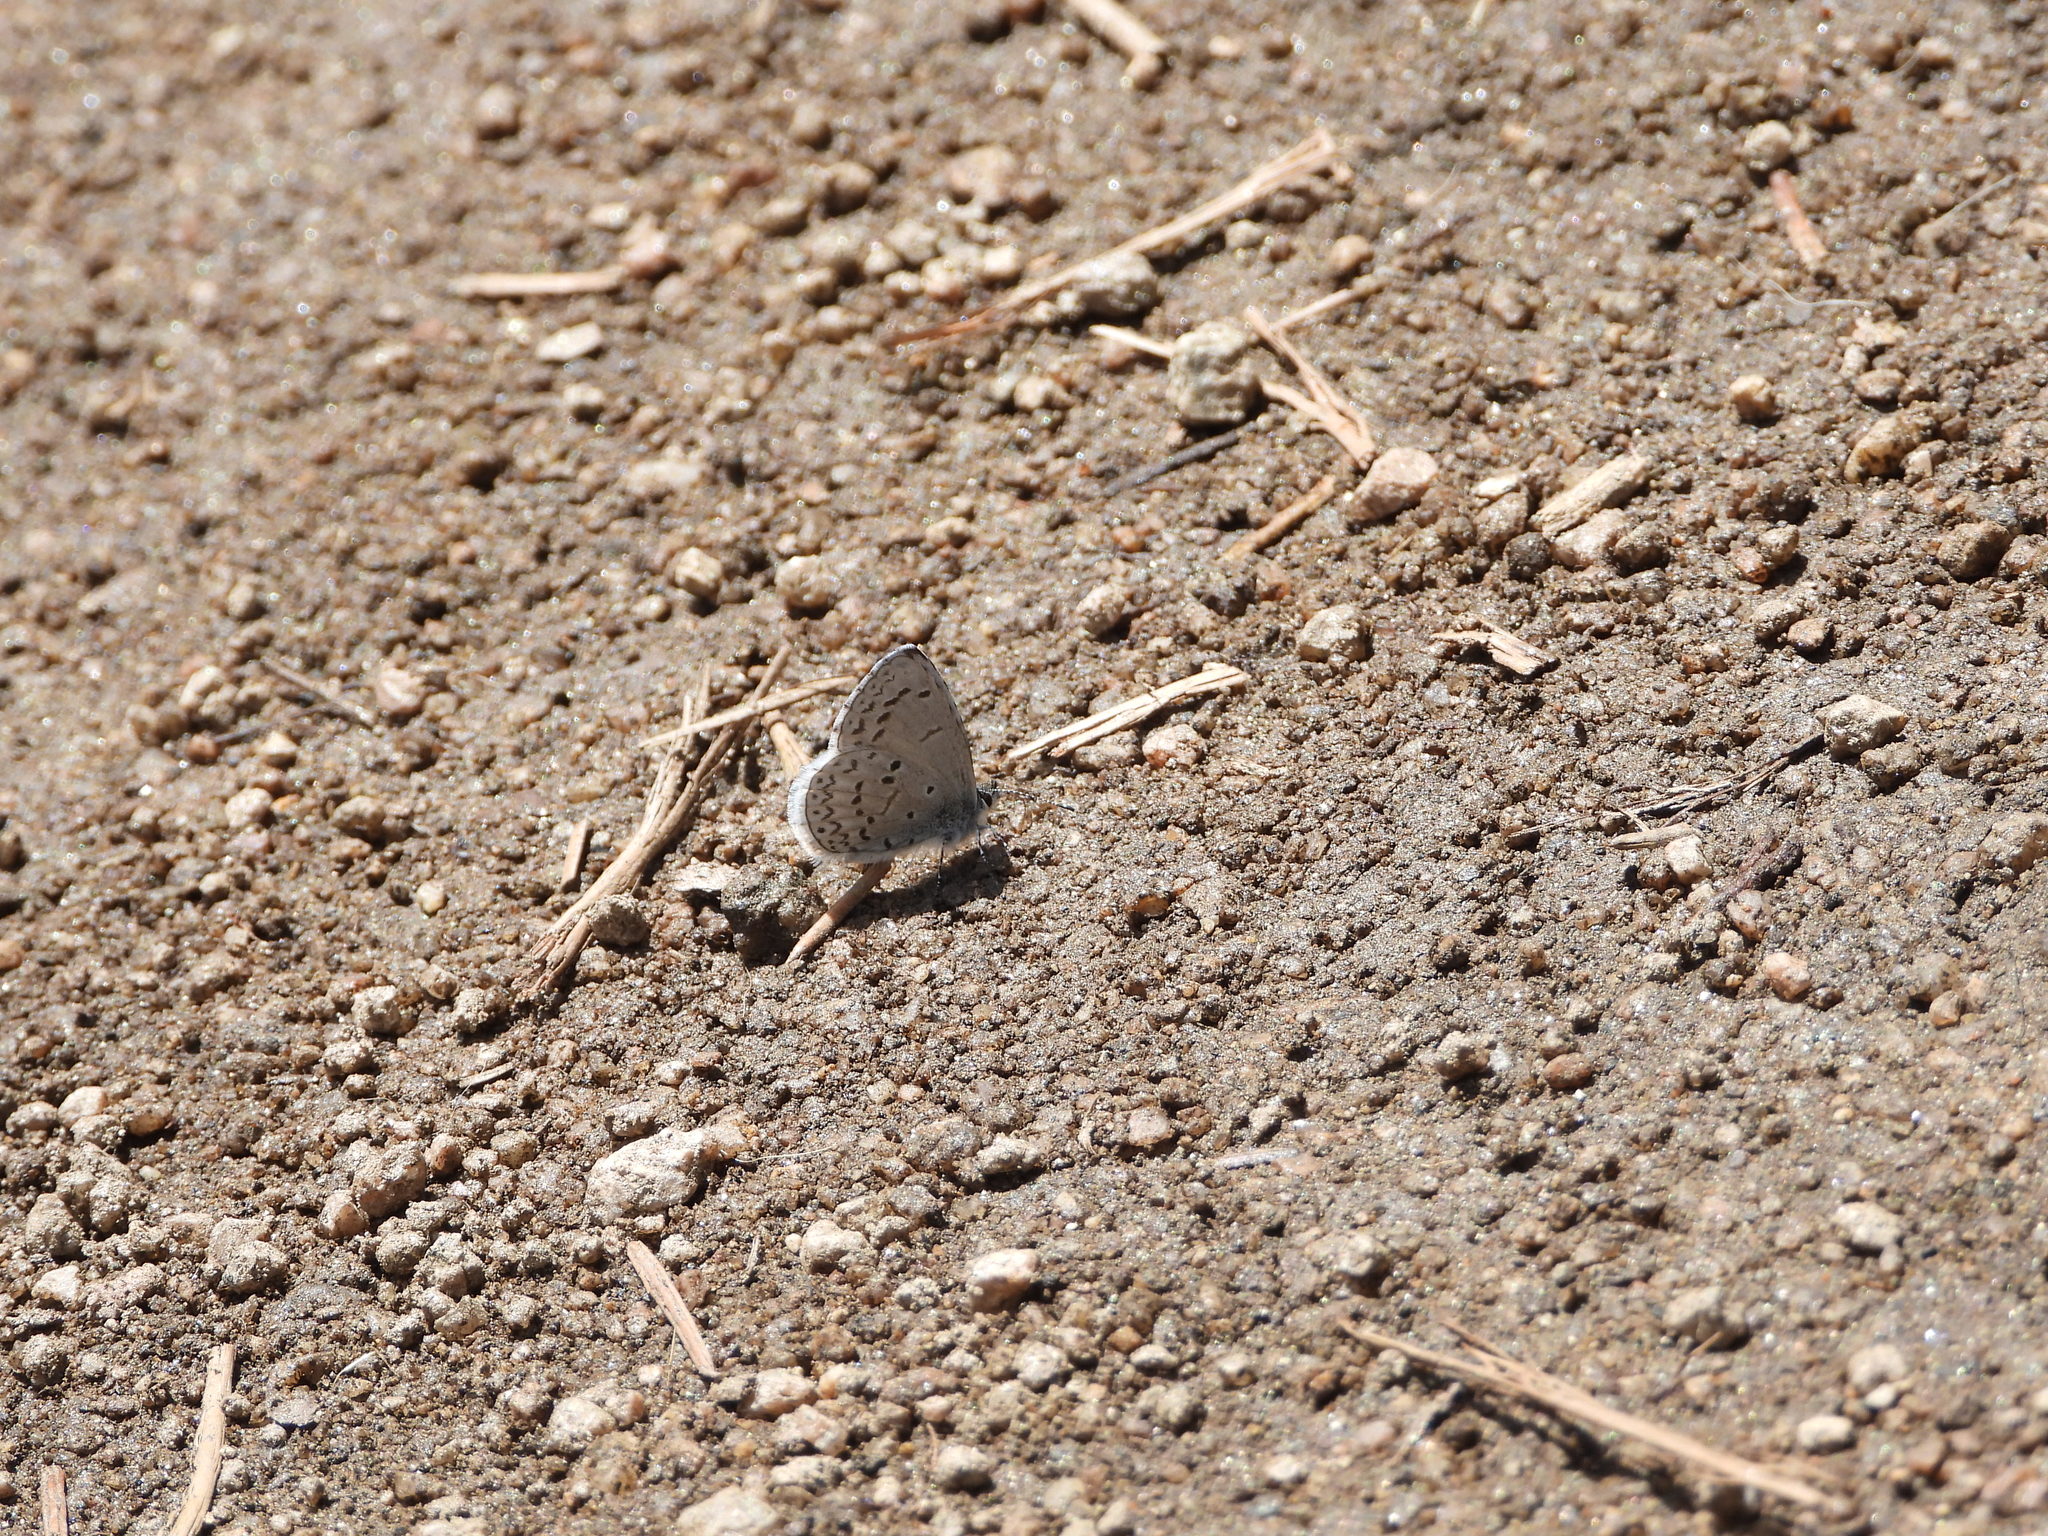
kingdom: Animalia
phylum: Arthropoda
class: Insecta
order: Lepidoptera
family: Lycaenidae
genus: Celastrina
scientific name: Celastrina ladon
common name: Spring azure
